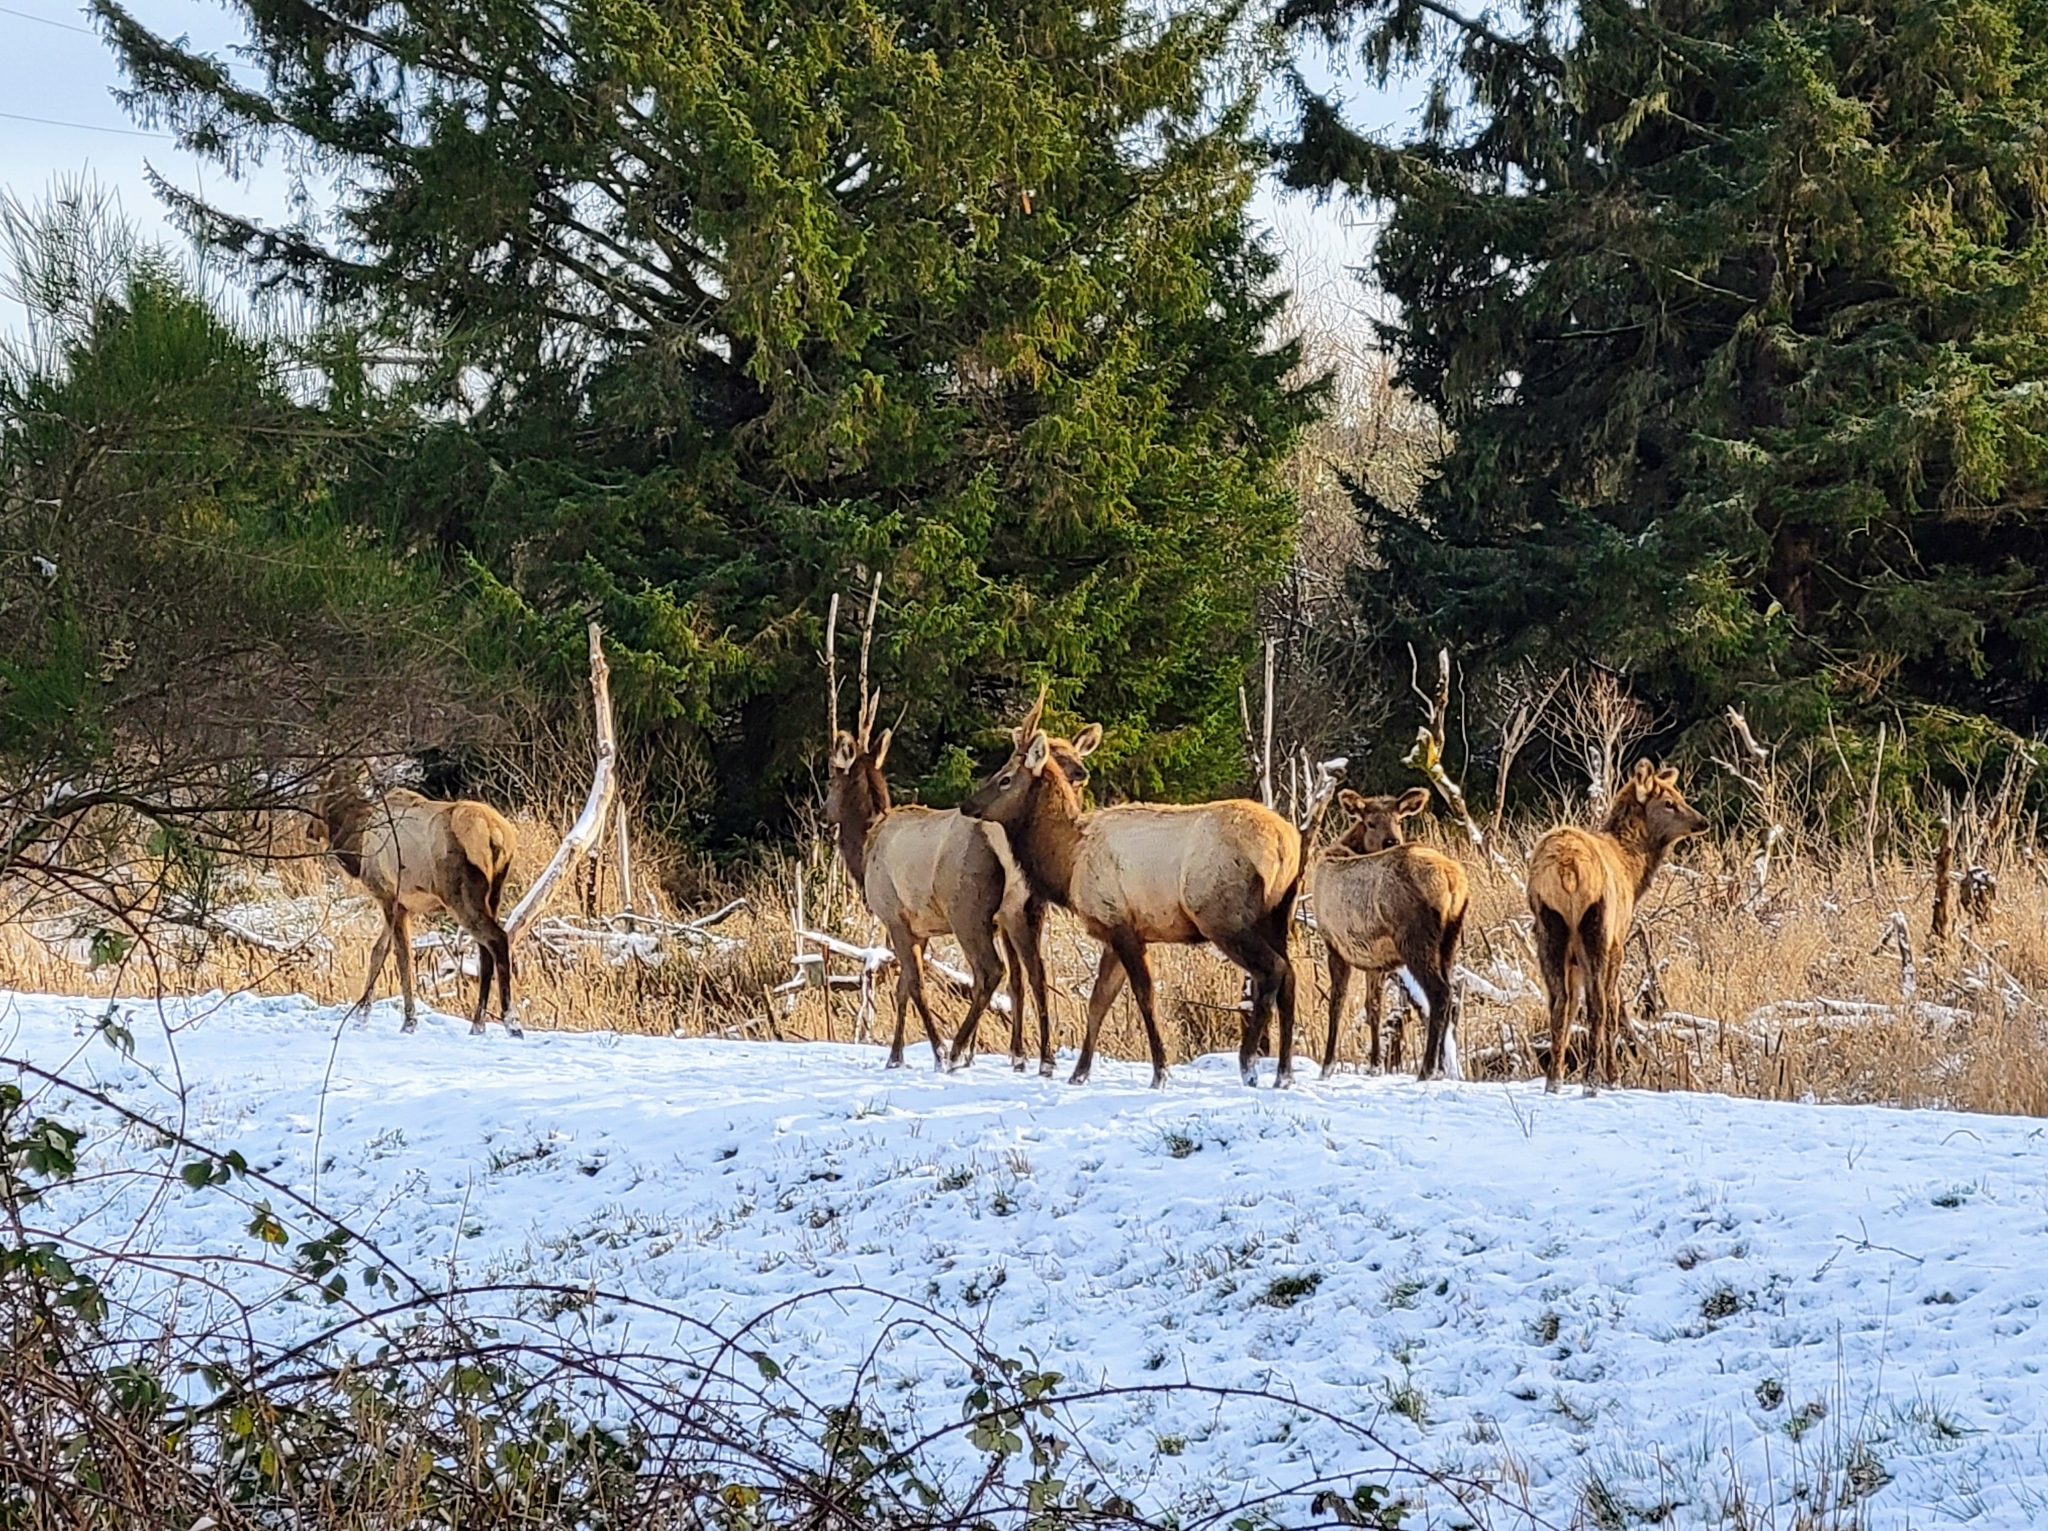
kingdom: Animalia
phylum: Chordata
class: Mammalia
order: Artiodactyla
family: Cervidae
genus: Cervus
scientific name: Cervus elaphus
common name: Red deer
